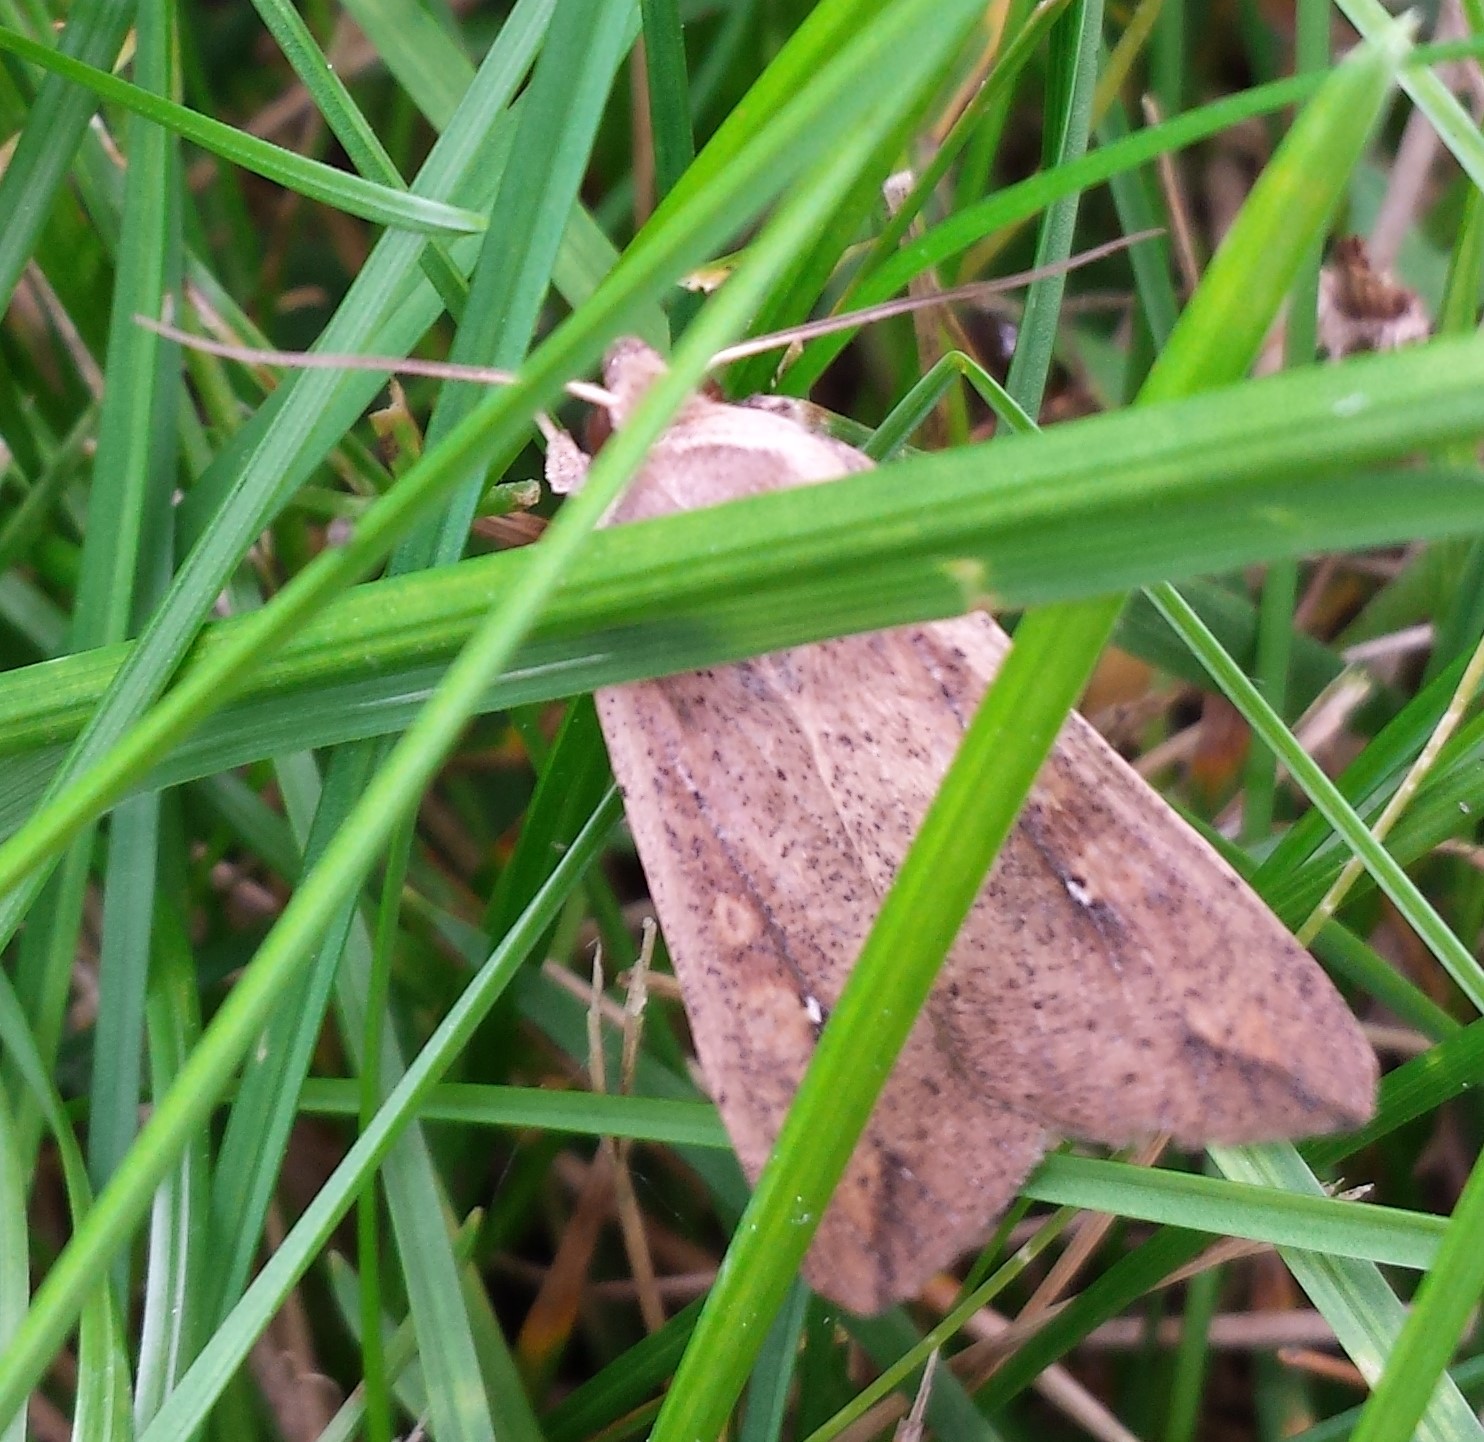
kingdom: Animalia
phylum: Arthropoda
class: Insecta
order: Lepidoptera
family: Noctuidae
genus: Mythimna
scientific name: Mythimna unipuncta
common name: White-speck
